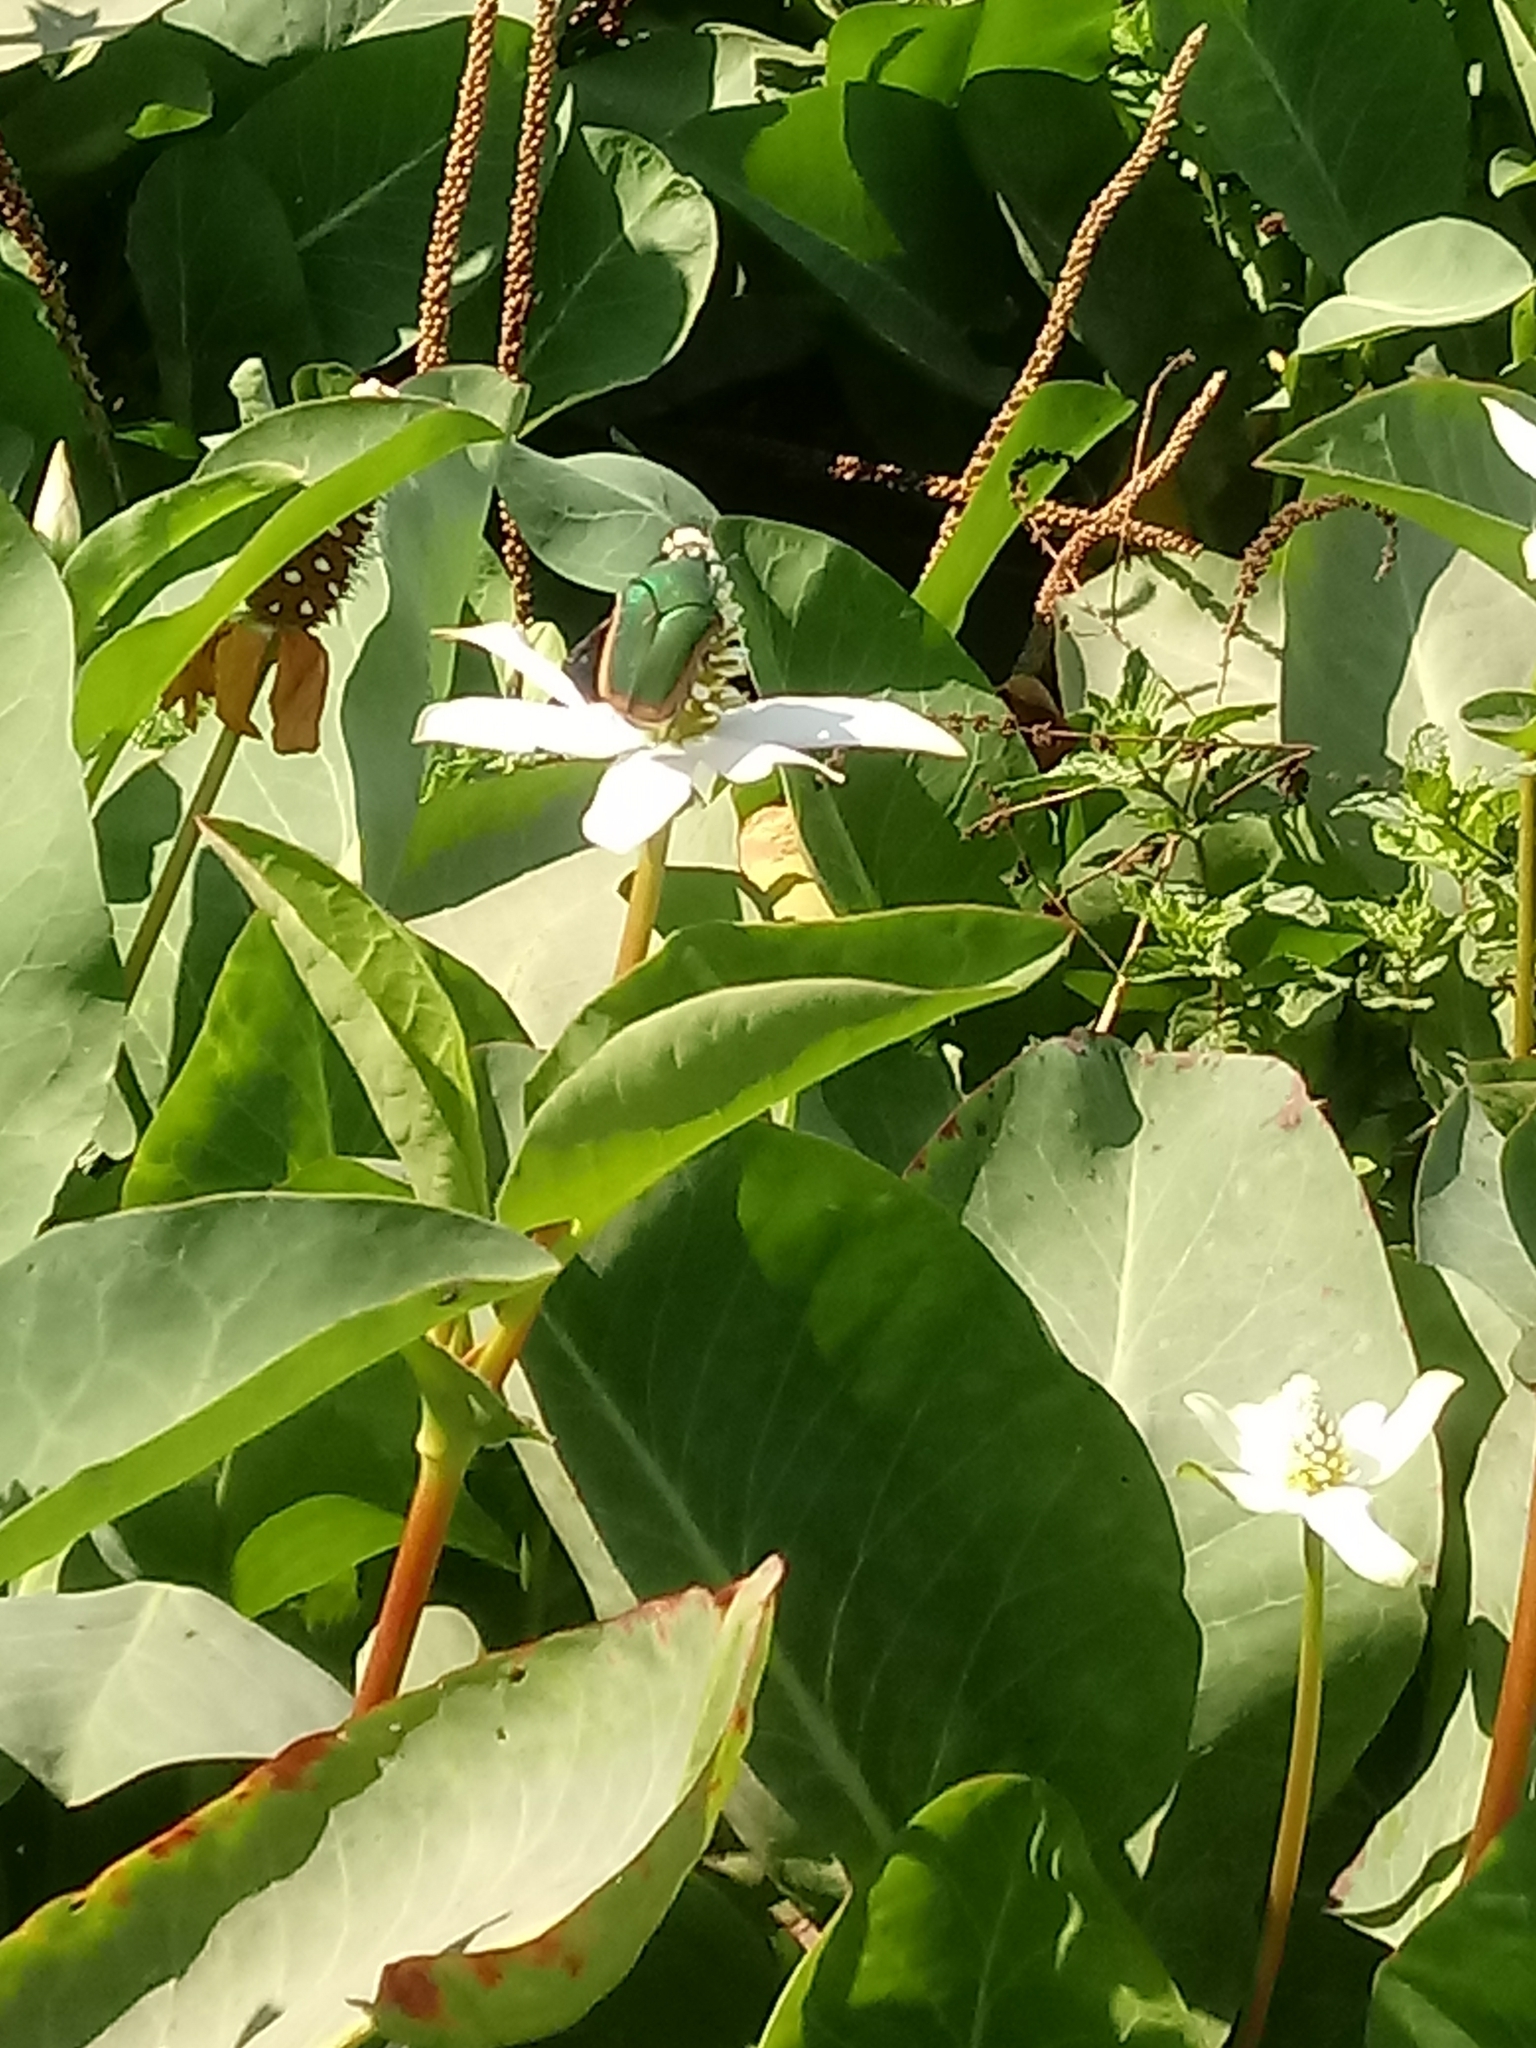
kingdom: Animalia
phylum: Arthropoda
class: Insecta
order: Coleoptera
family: Scarabaeidae
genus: Cotinis
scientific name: Cotinis mutabilis
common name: Figeater beetle
